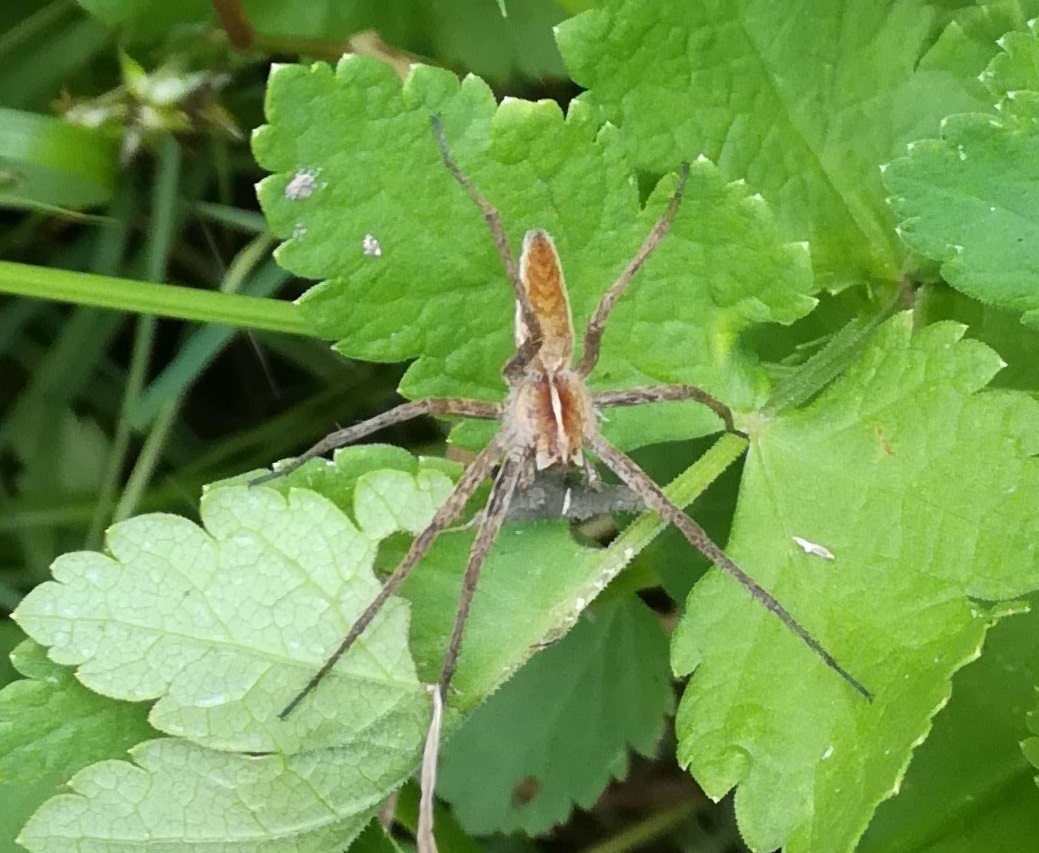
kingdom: Animalia
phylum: Arthropoda
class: Arachnida
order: Araneae
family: Pisauridae
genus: Pisaura
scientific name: Pisaura mirabilis
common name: Tent spider
